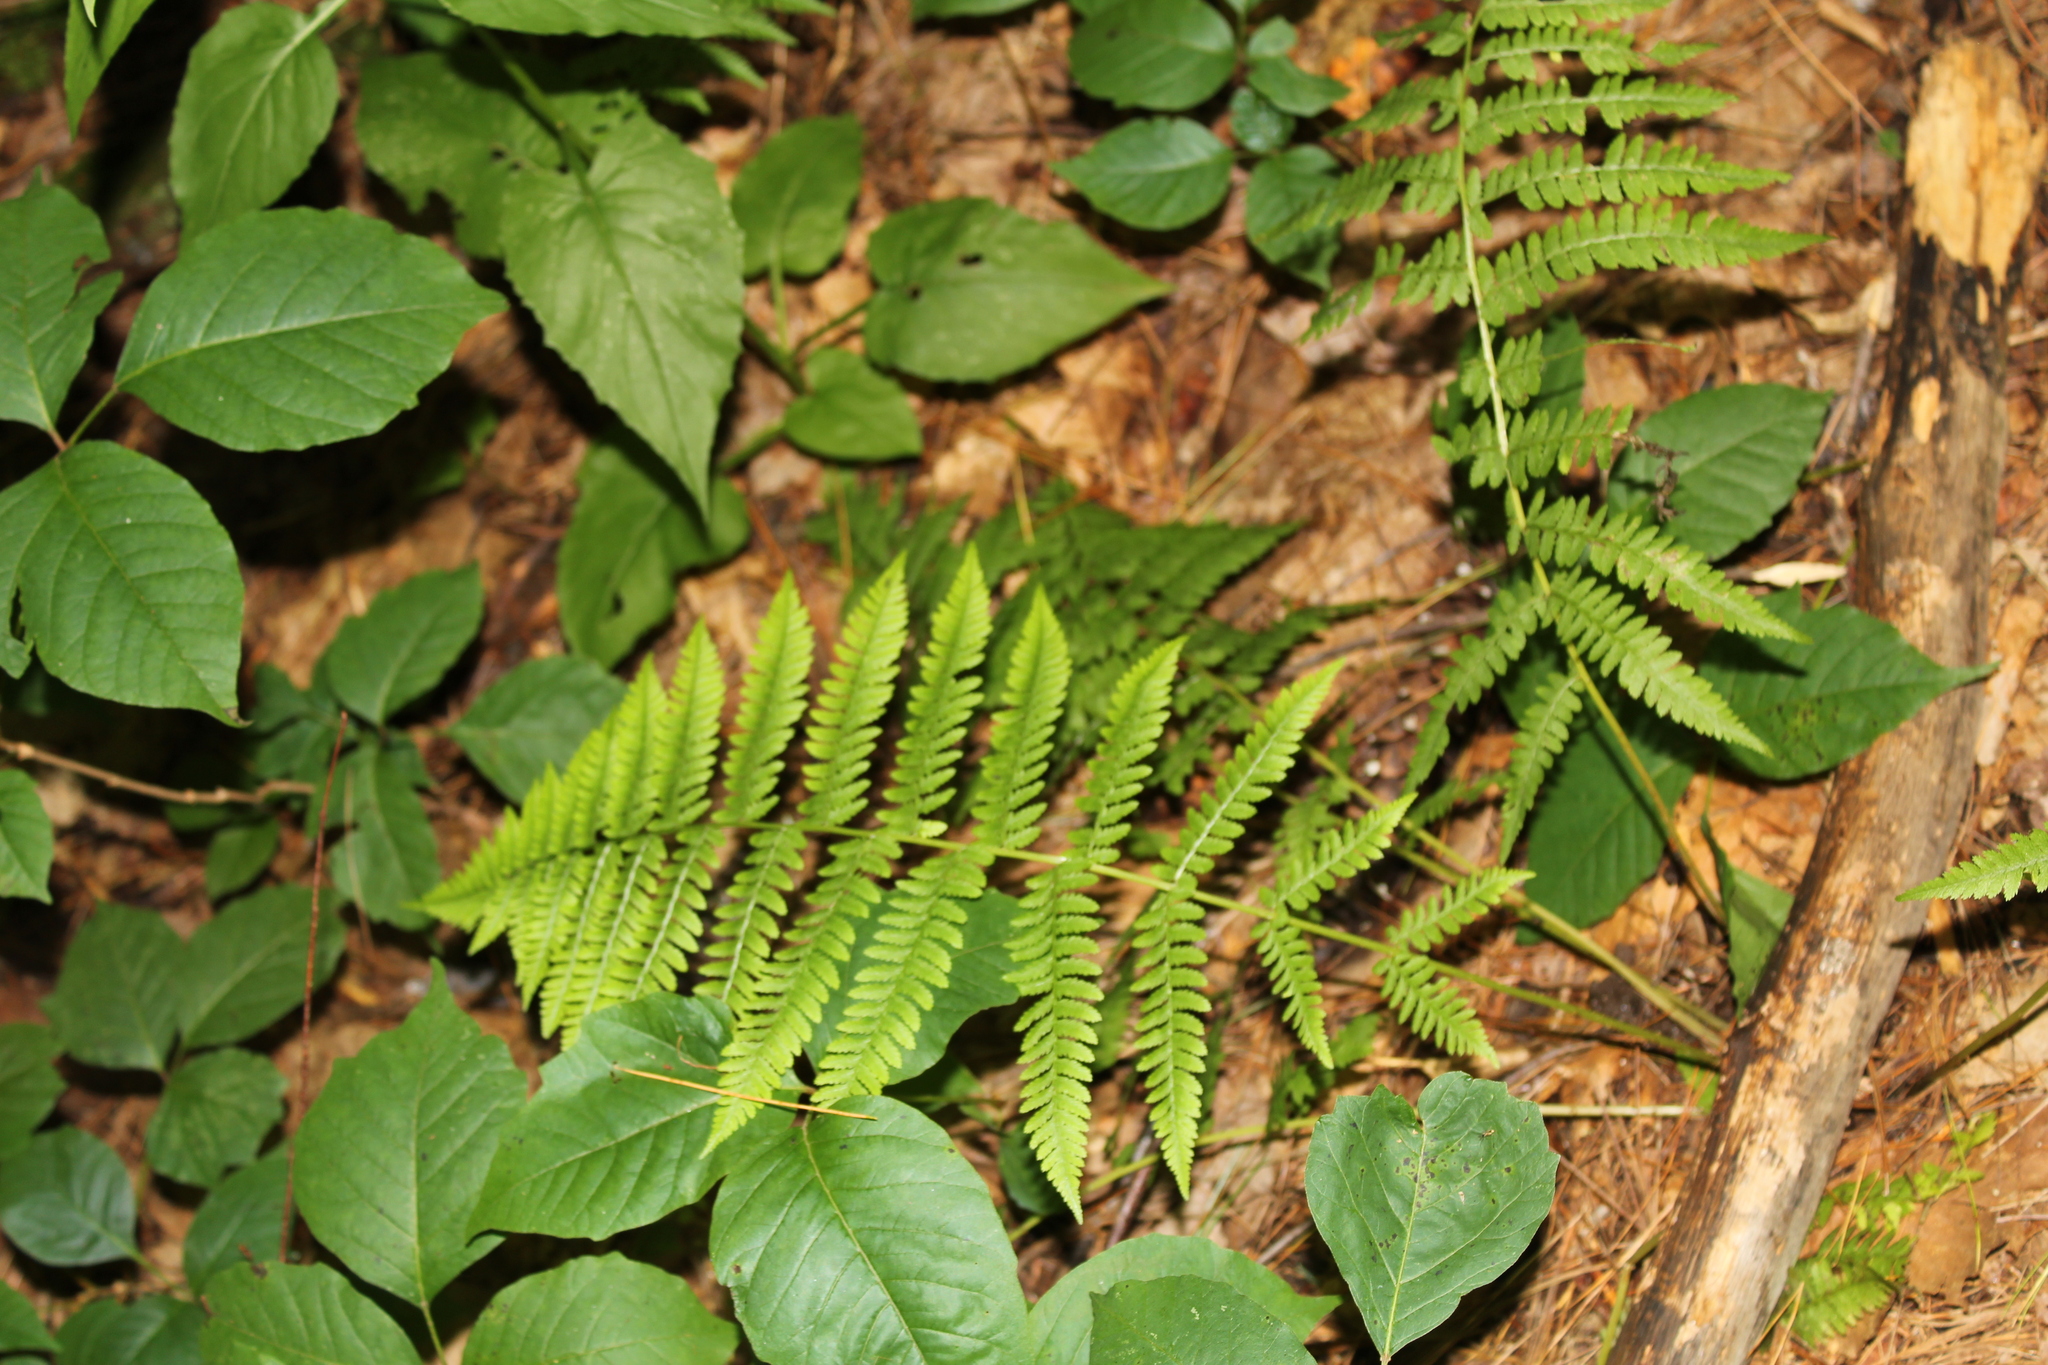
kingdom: Plantae
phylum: Tracheophyta
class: Polypodiopsida
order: Polypodiales
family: Thelypteridaceae
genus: Coryphopteris
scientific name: Coryphopteris simulata
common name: Bog fern
